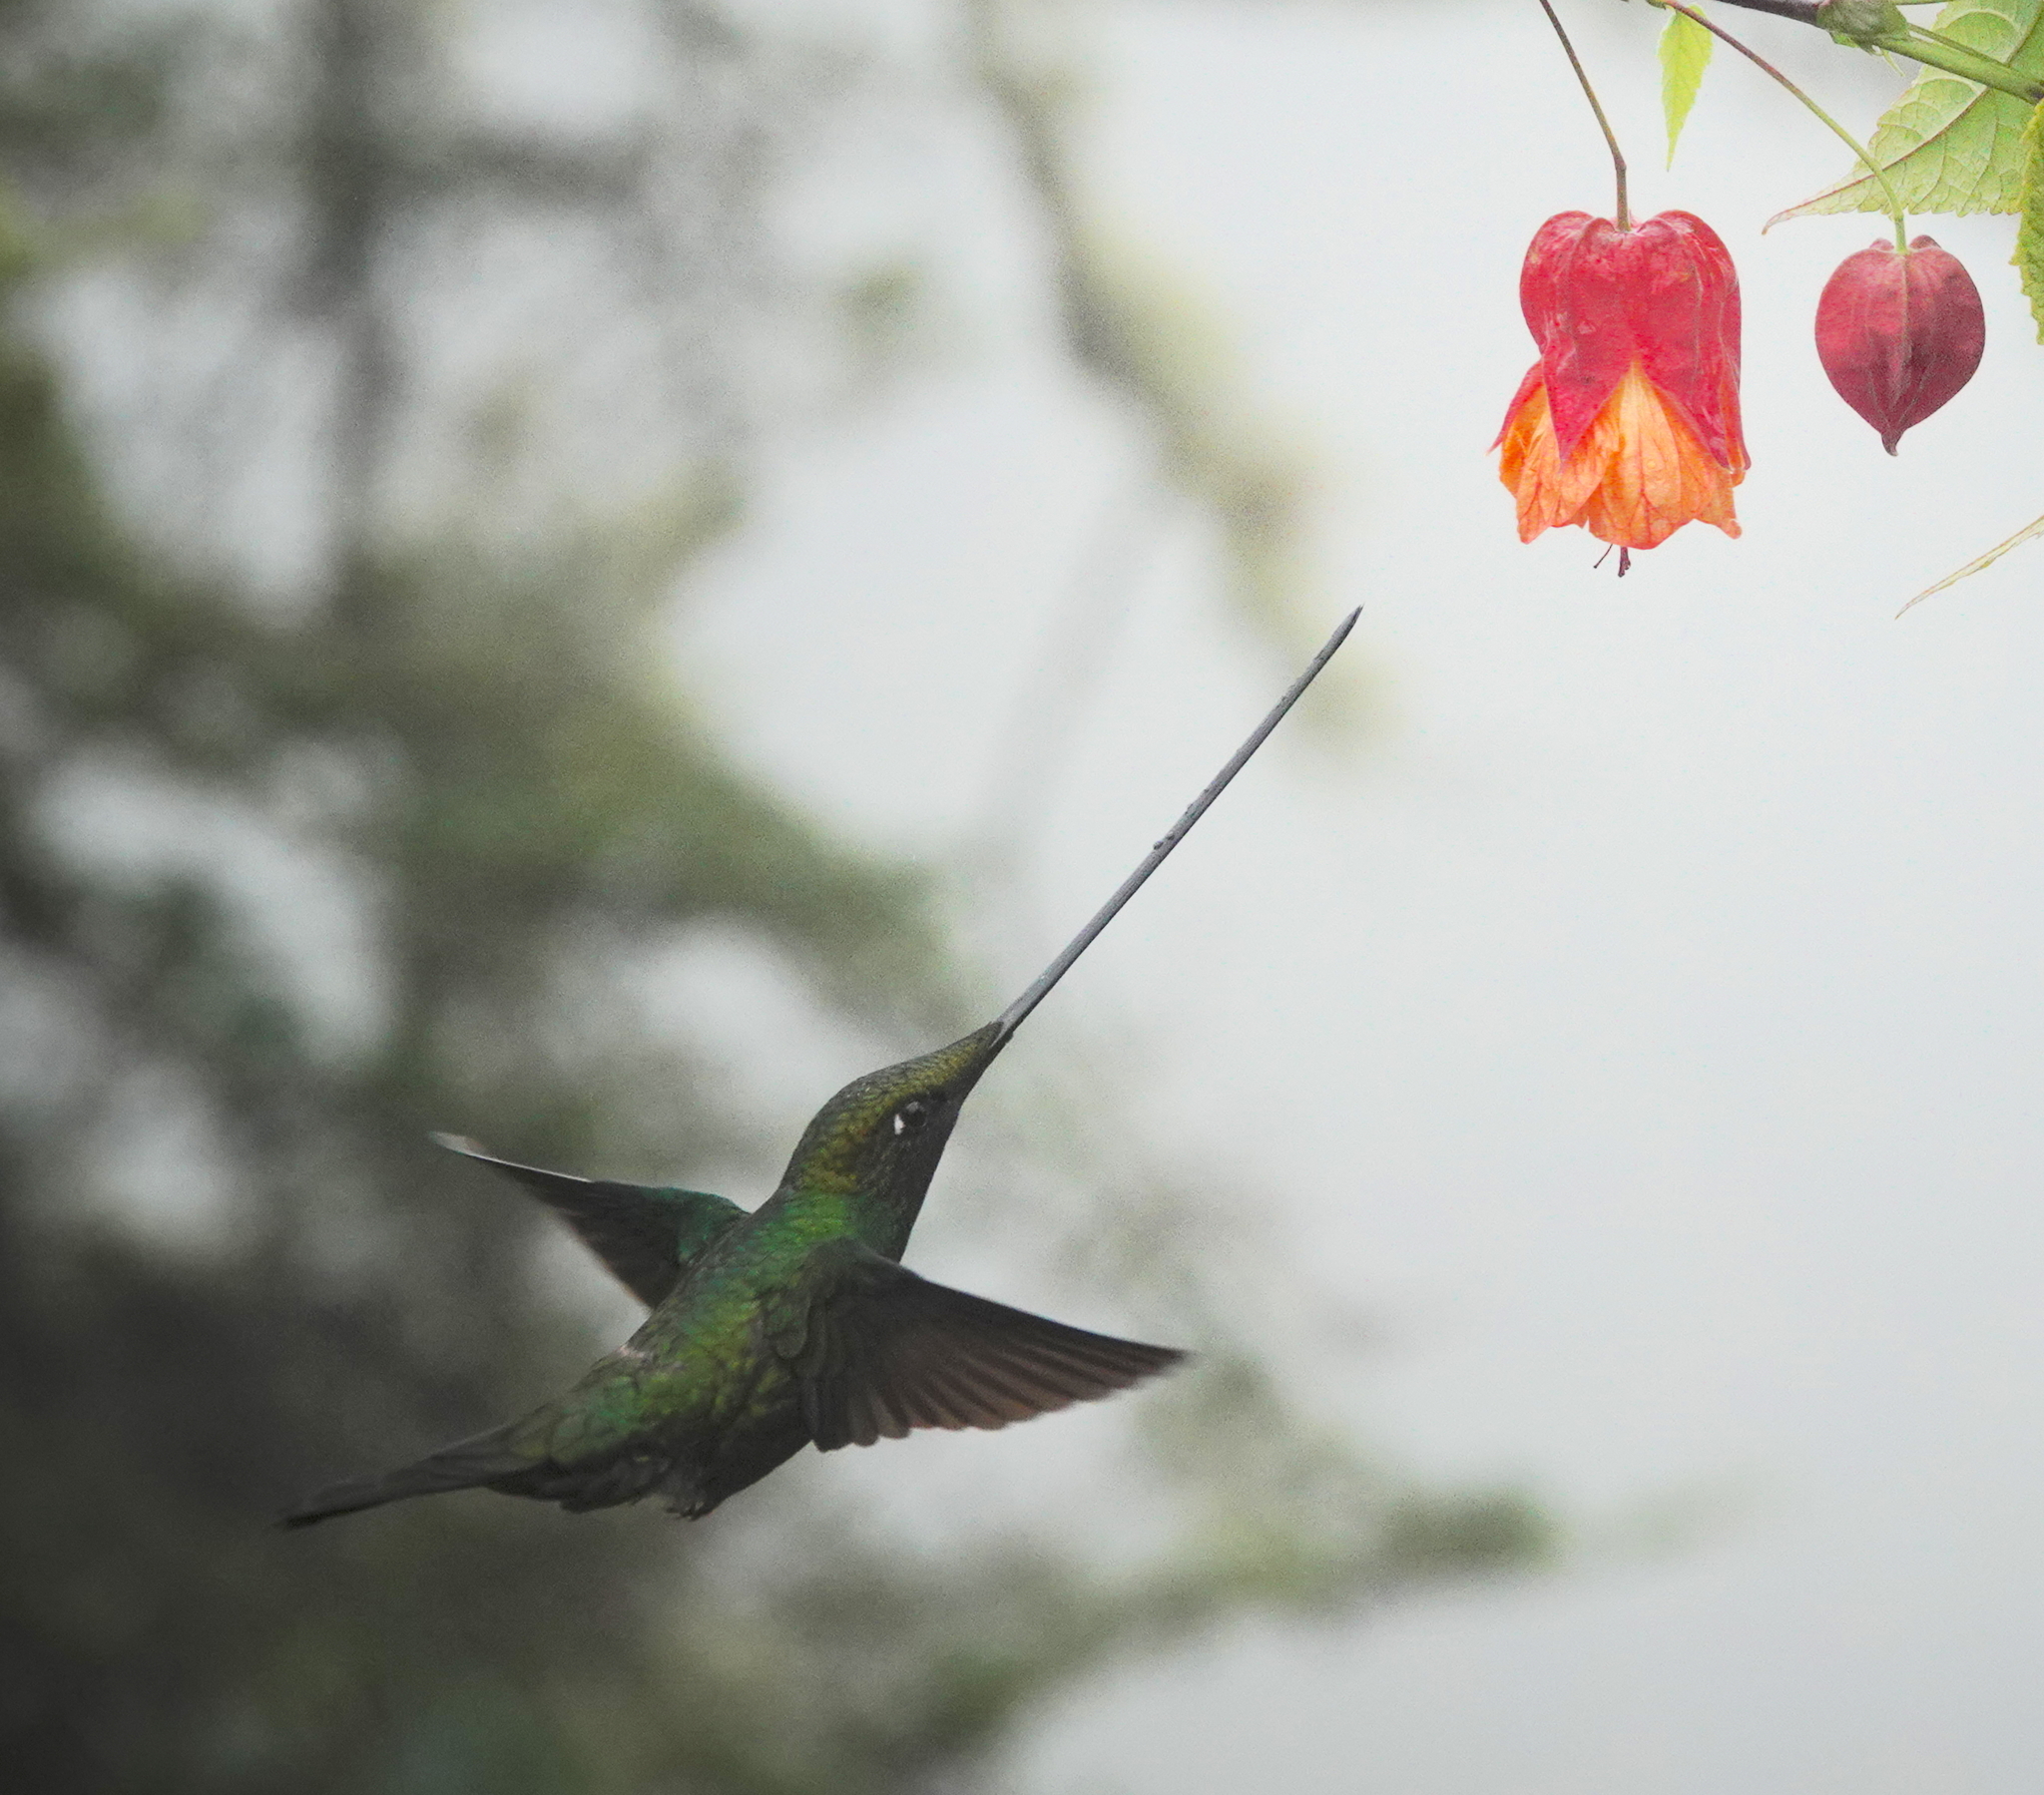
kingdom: Animalia
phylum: Chordata
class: Aves
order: Apodiformes
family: Trochilidae
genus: Ensifera
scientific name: Ensifera ensifera
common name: Sword-billed hummingbird
